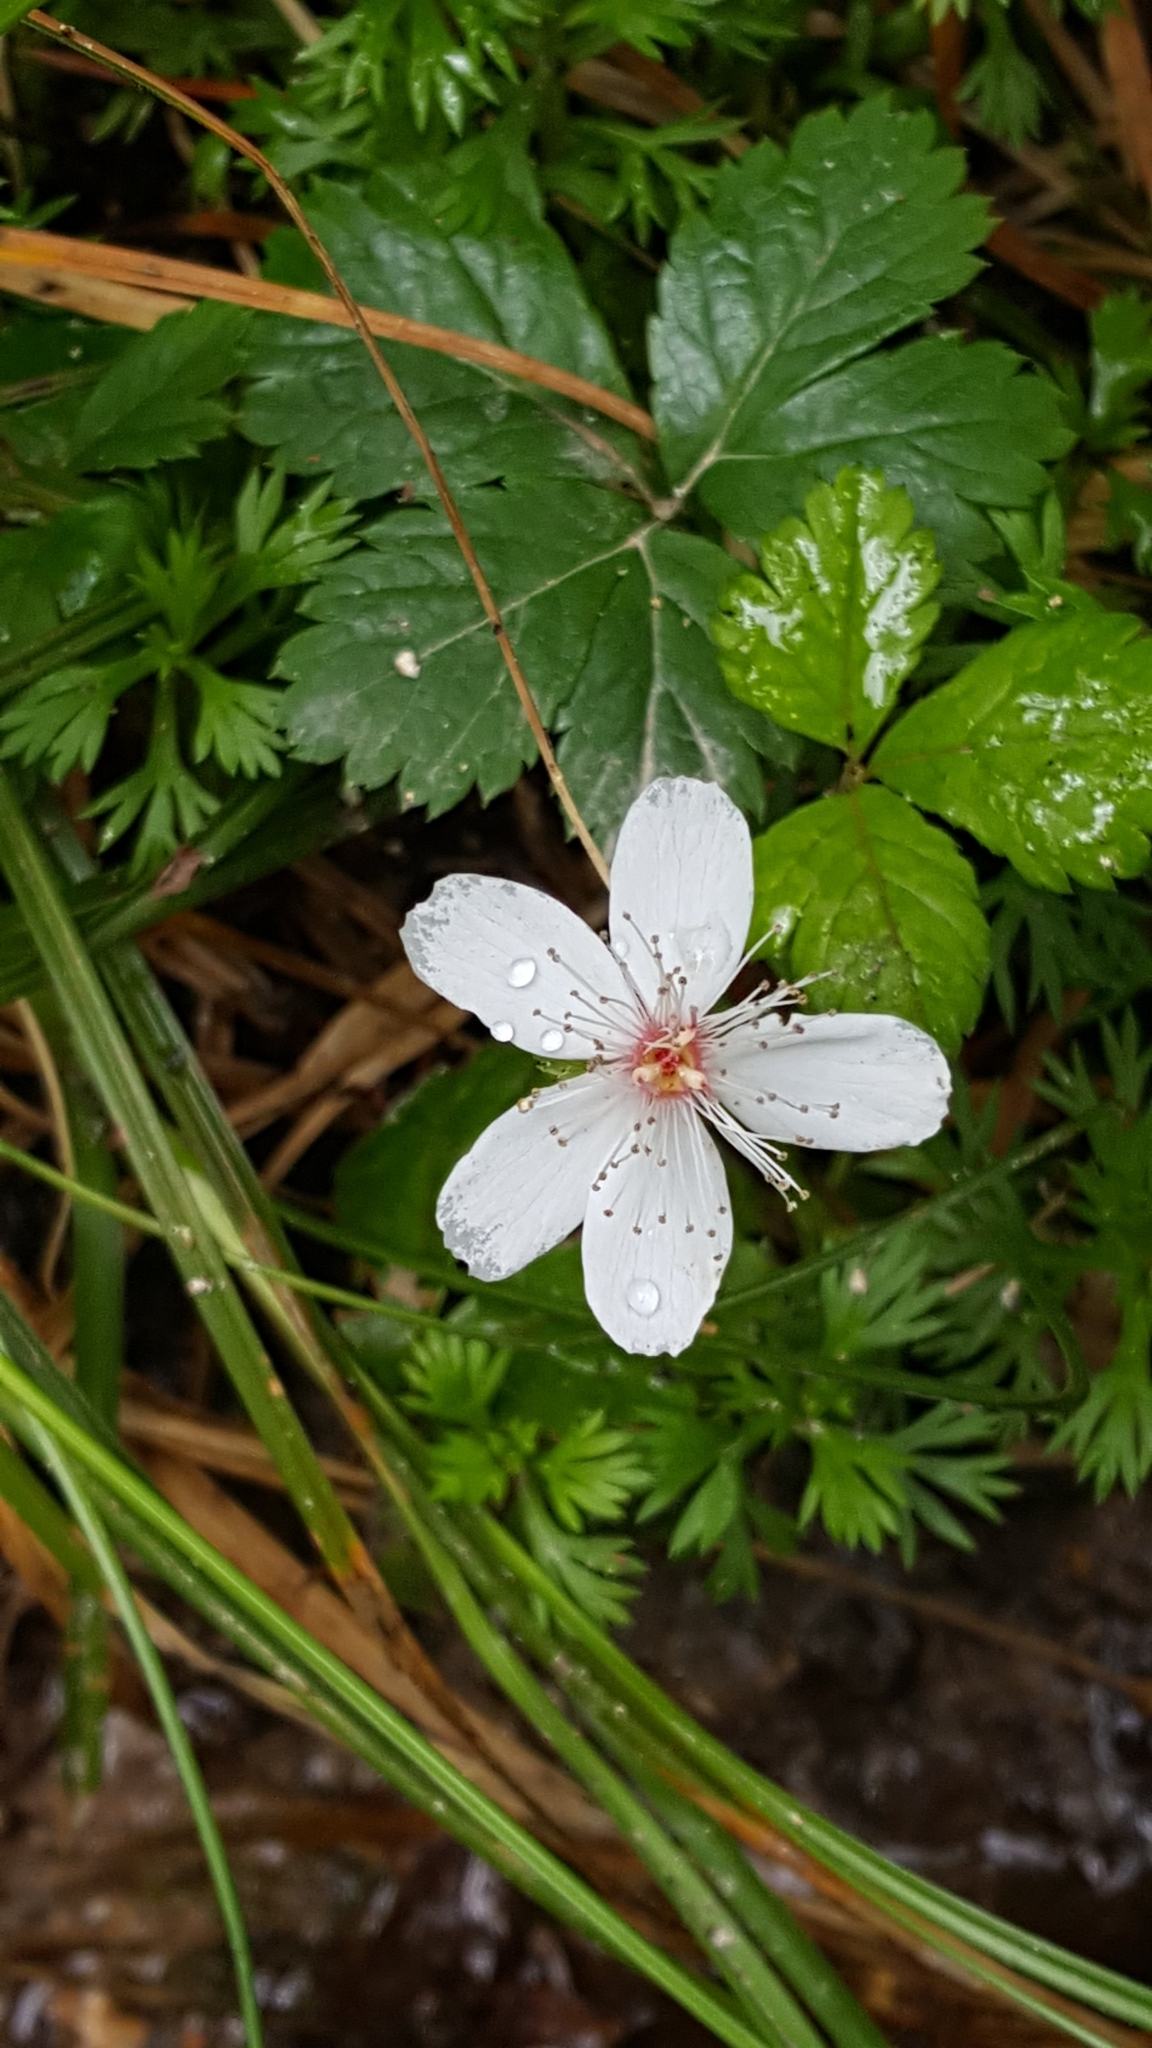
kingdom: Plantae
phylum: Tracheophyta
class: Magnoliopsida
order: Rosales
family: Rosaceae
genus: Rubus
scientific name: Rubus pedatus
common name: Creeping raspberry
